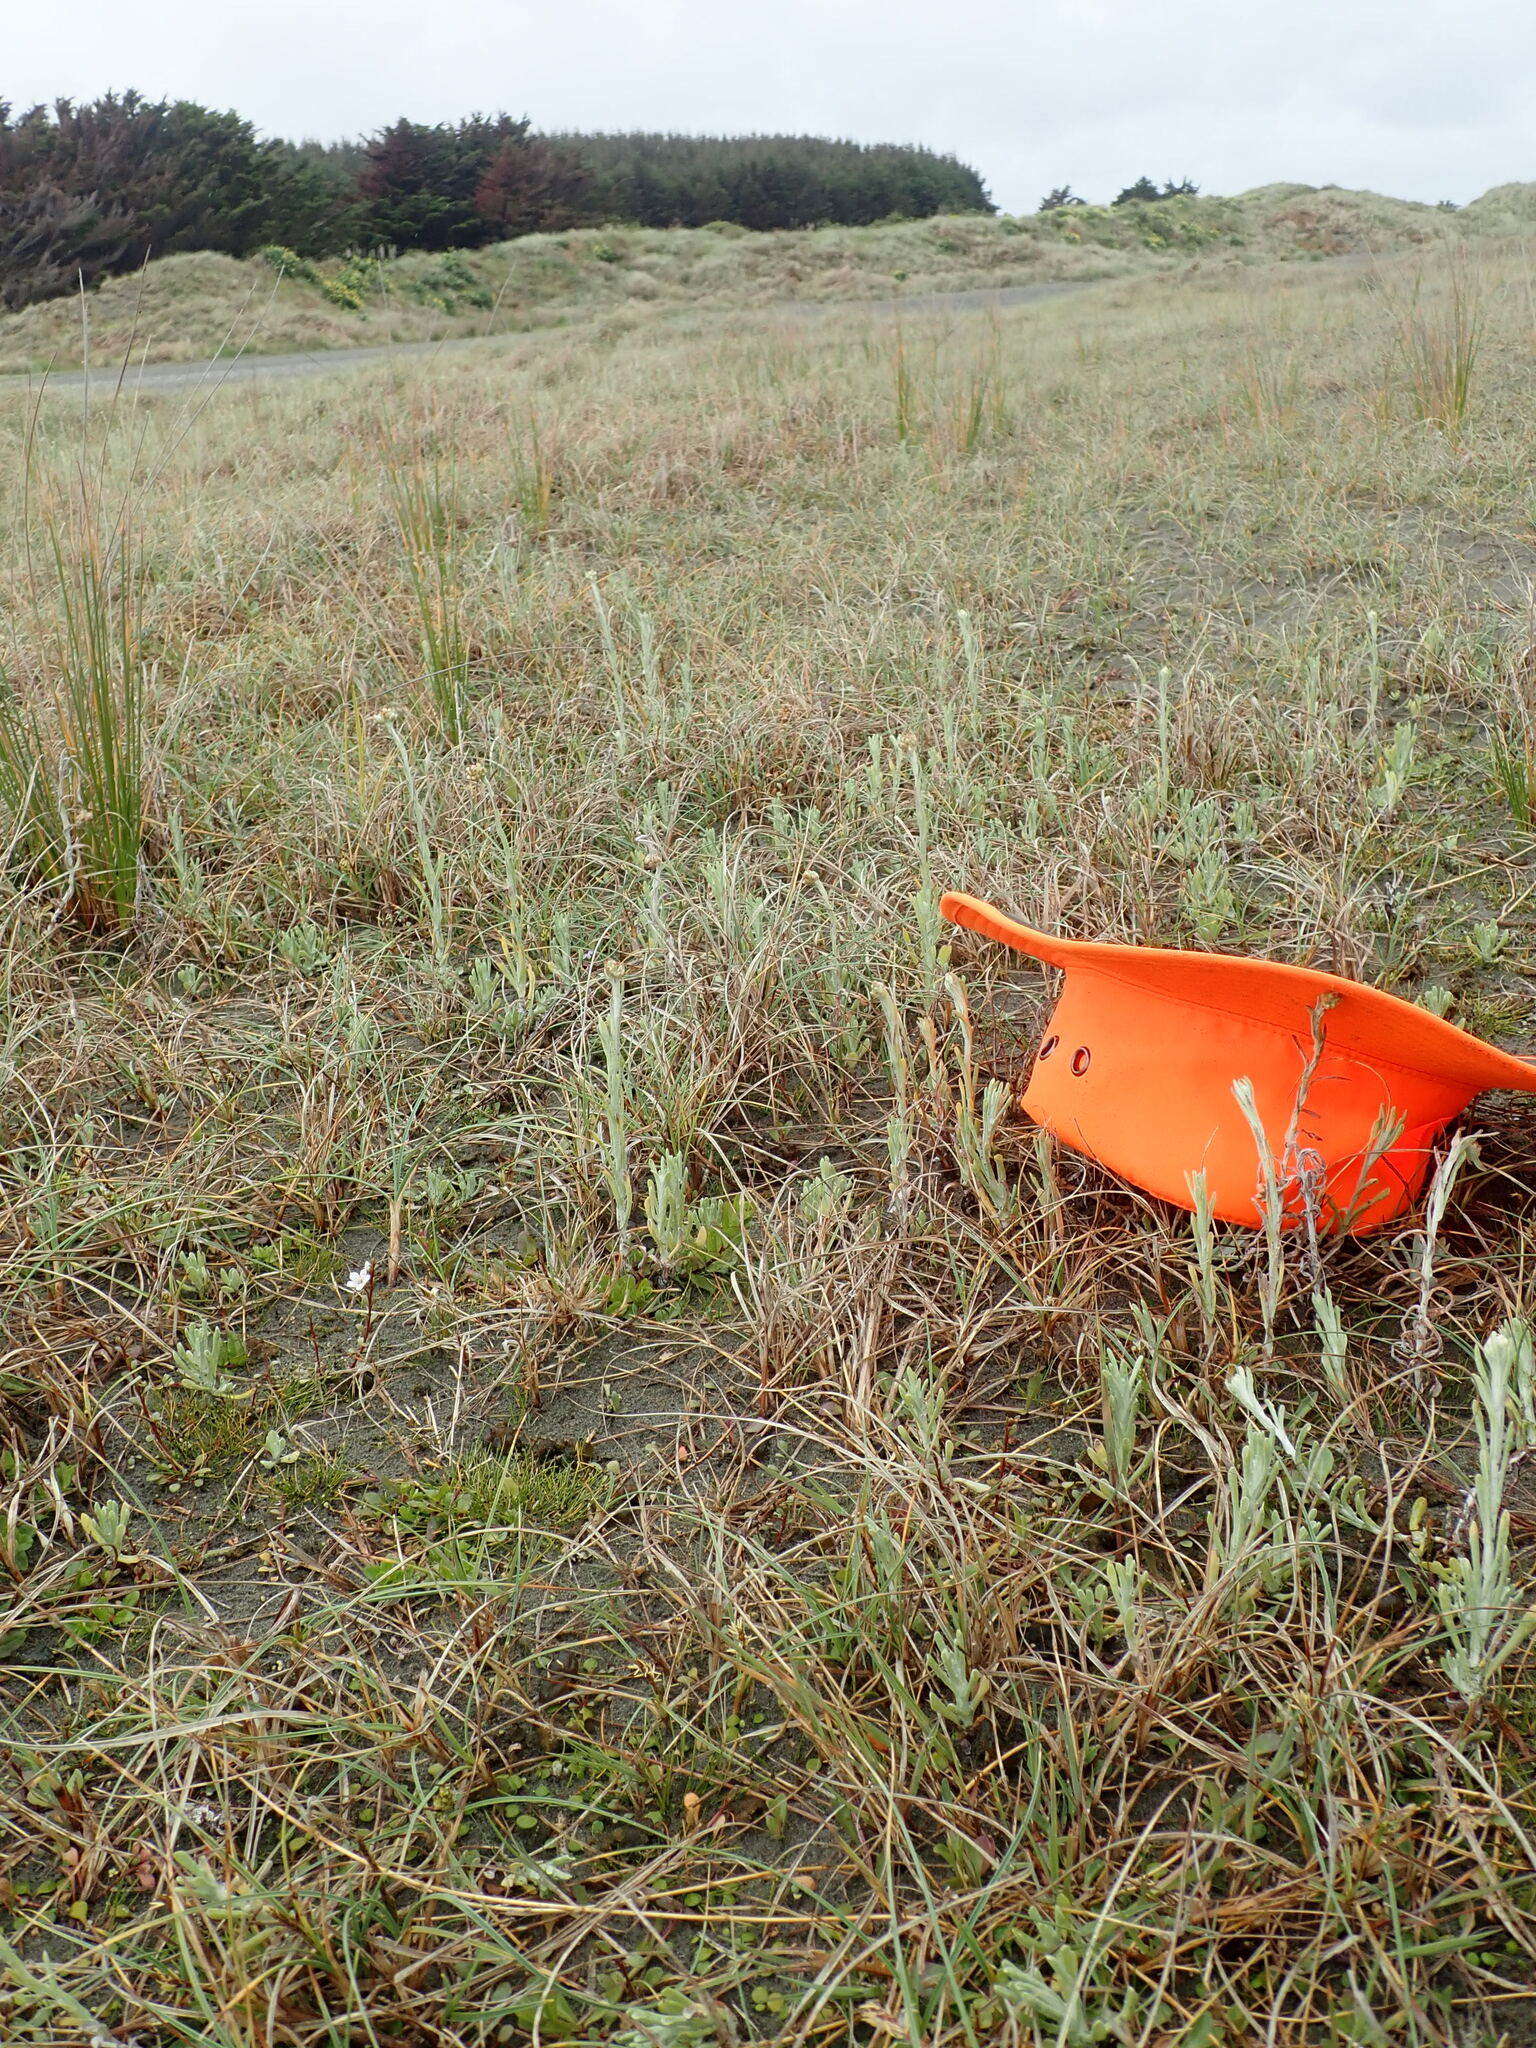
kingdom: Plantae
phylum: Tracheophyta
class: Magnoliopsida
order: Myrtales
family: Onagraceae
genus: Epilobium
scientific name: Epilobium billardiereanum
